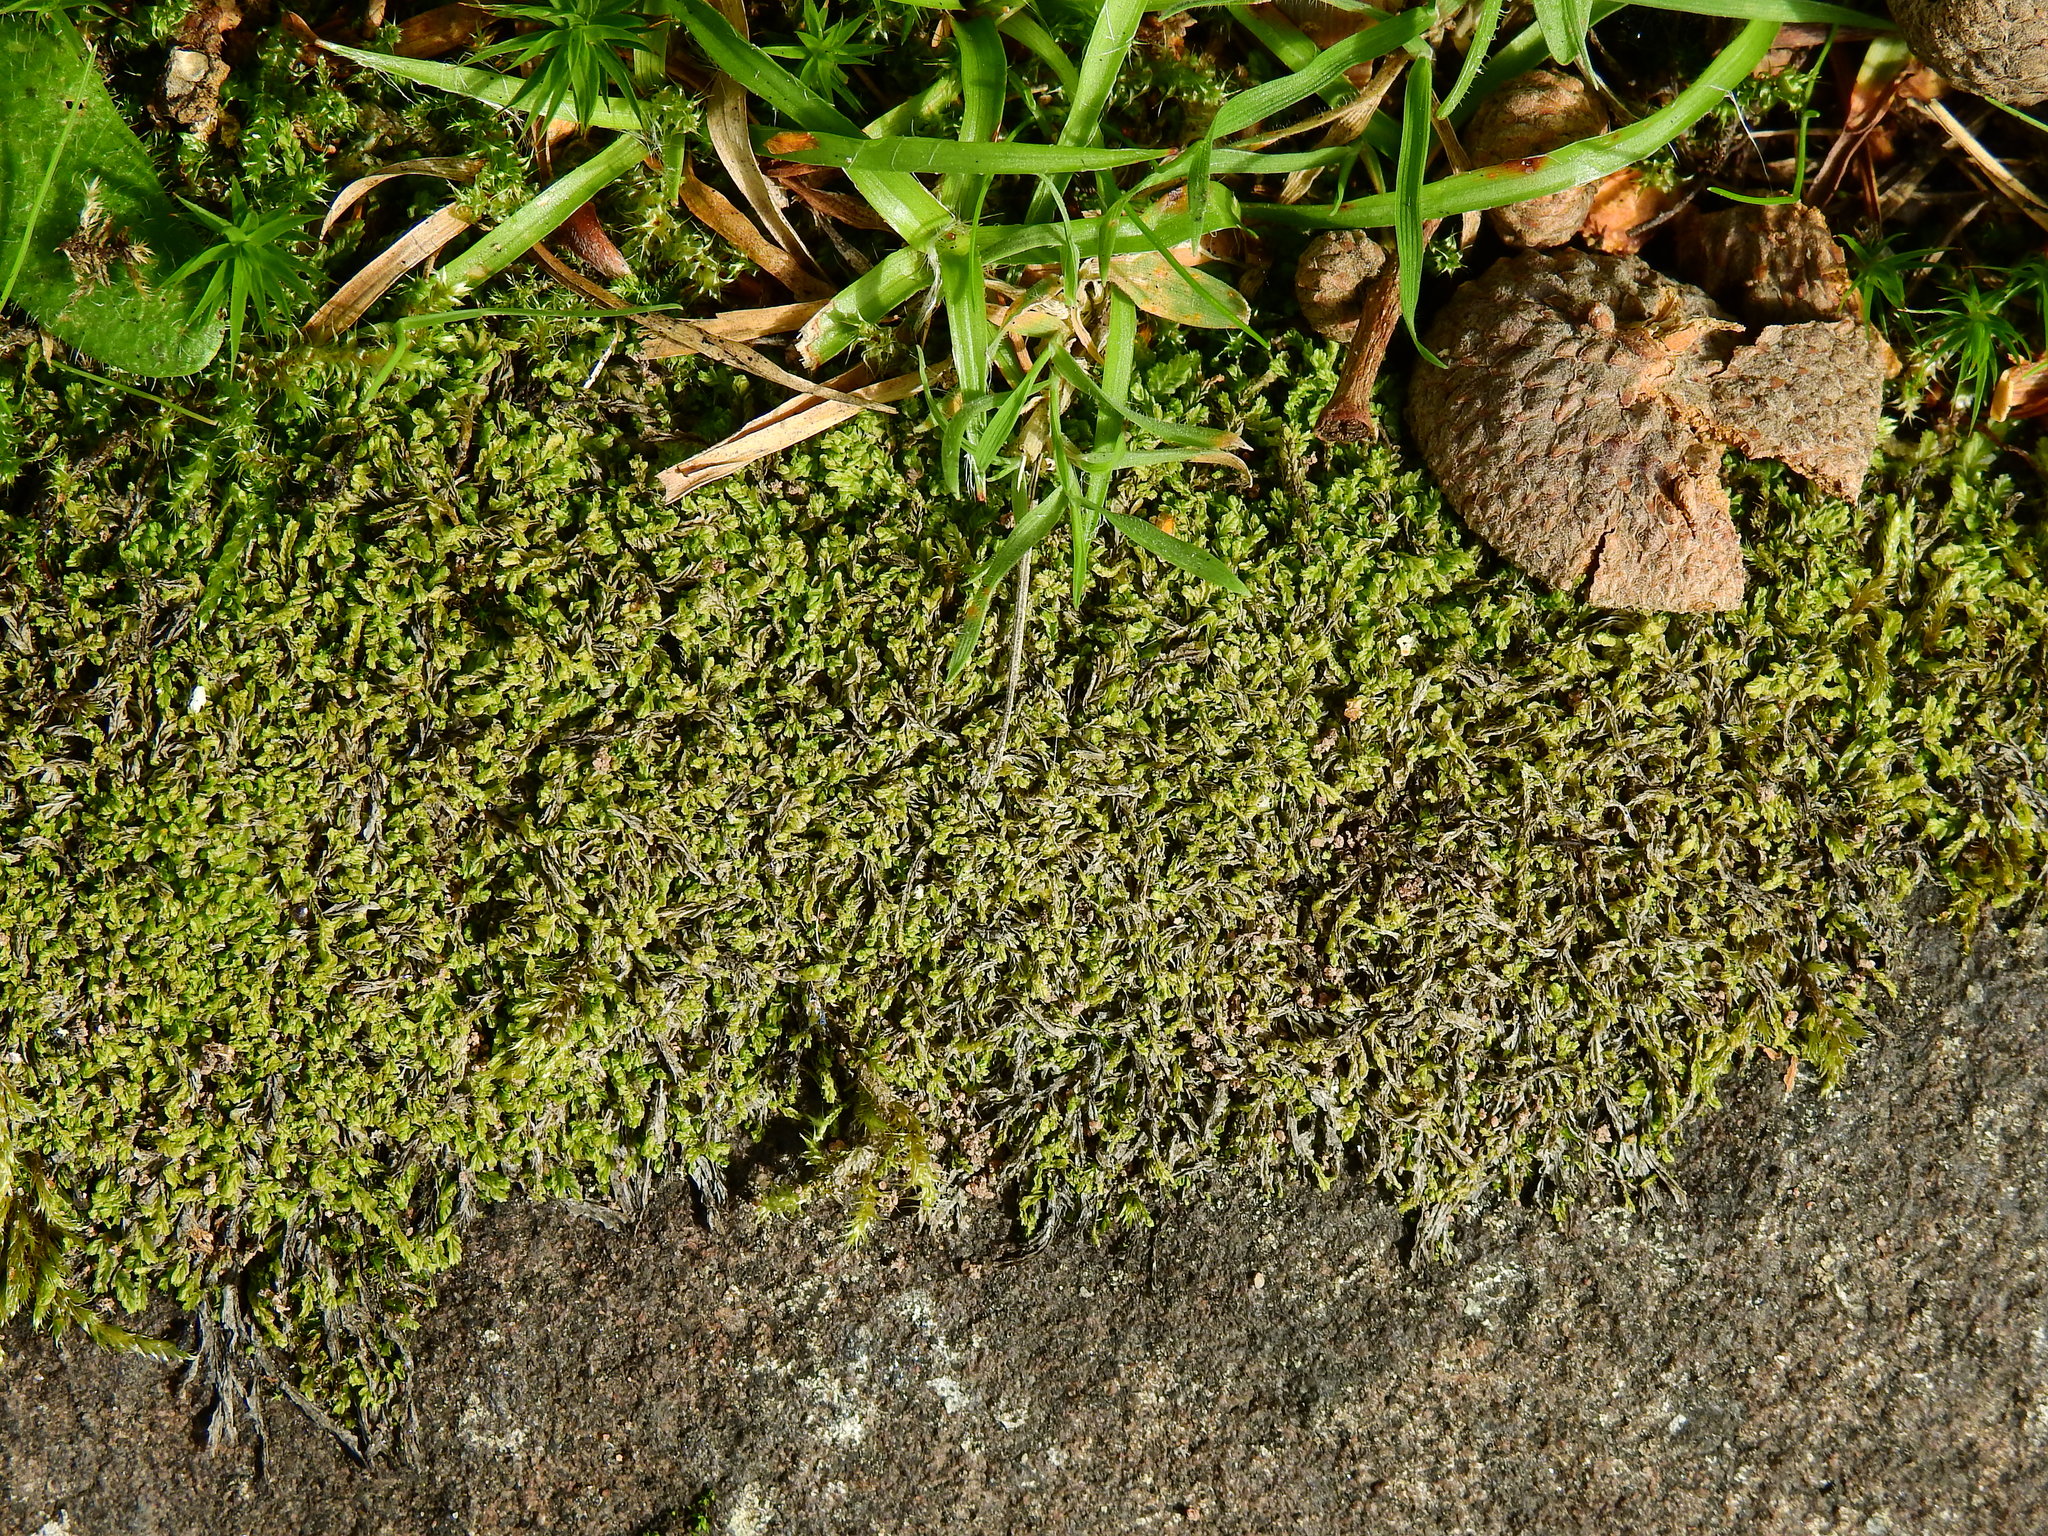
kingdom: Plantae
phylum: Marchantiophyta
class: Jungermanniopsida
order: Jungermanniales
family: Lophocoleaceae
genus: Lophocolea
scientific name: Lophocolea semiteres
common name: Southern crestwort
